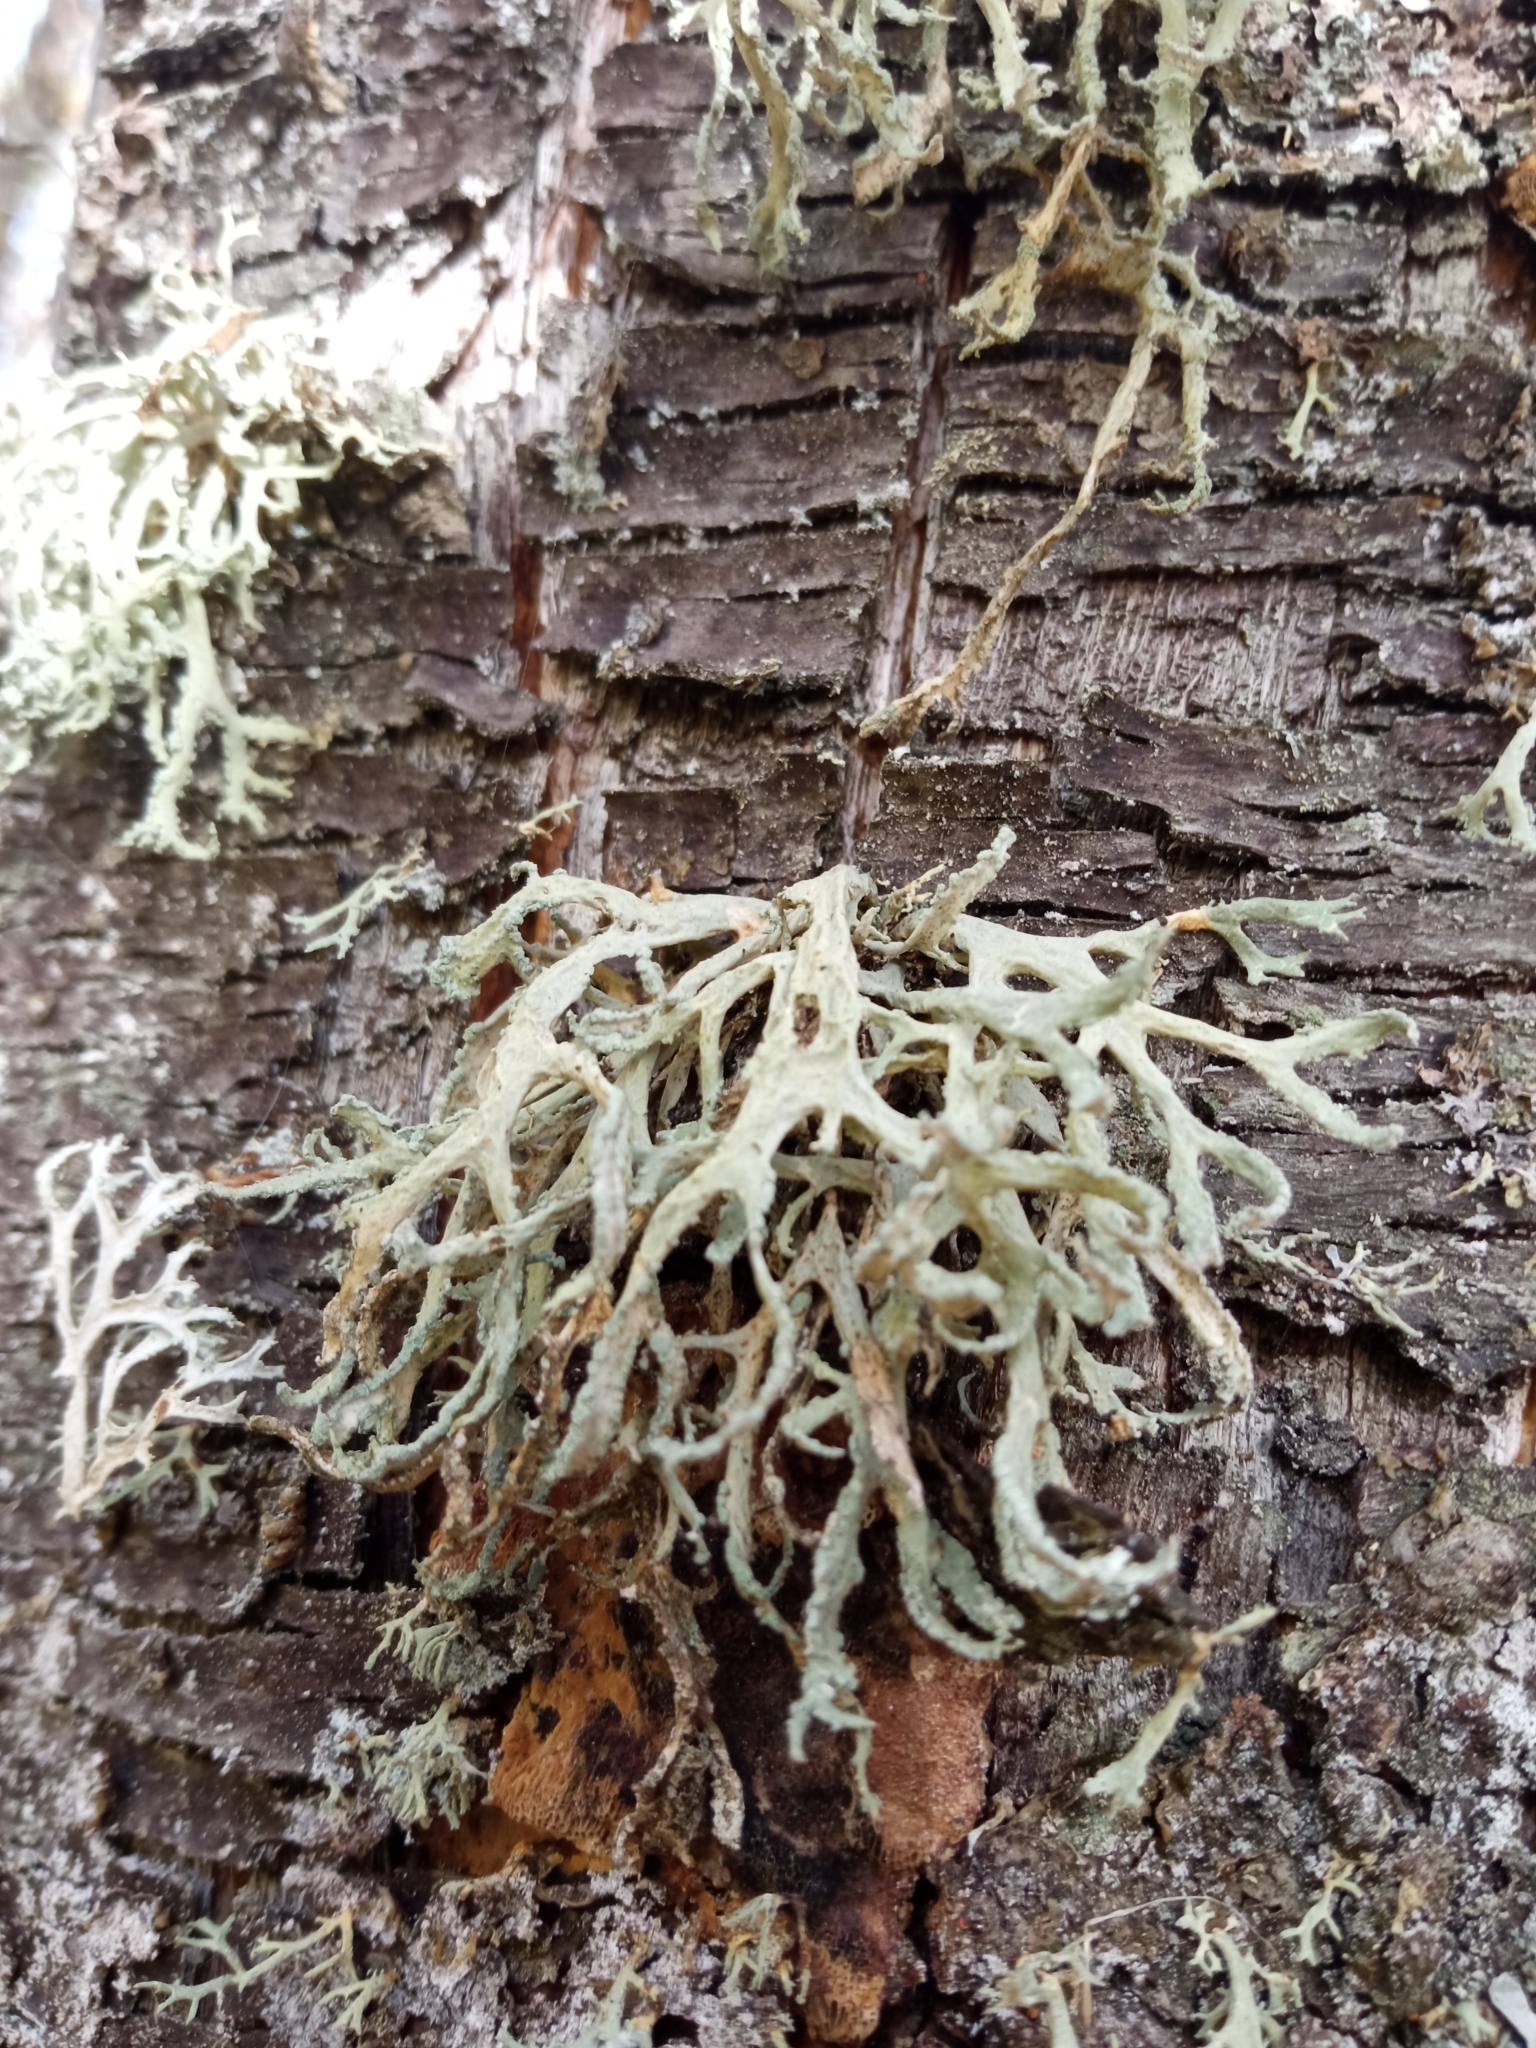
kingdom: Fungi
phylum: Ascomycota
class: Lecanoromycetes
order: Lecanorales
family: Parmeliaceae
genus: Evernia
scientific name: Evernia prunastri
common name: Oak moss
